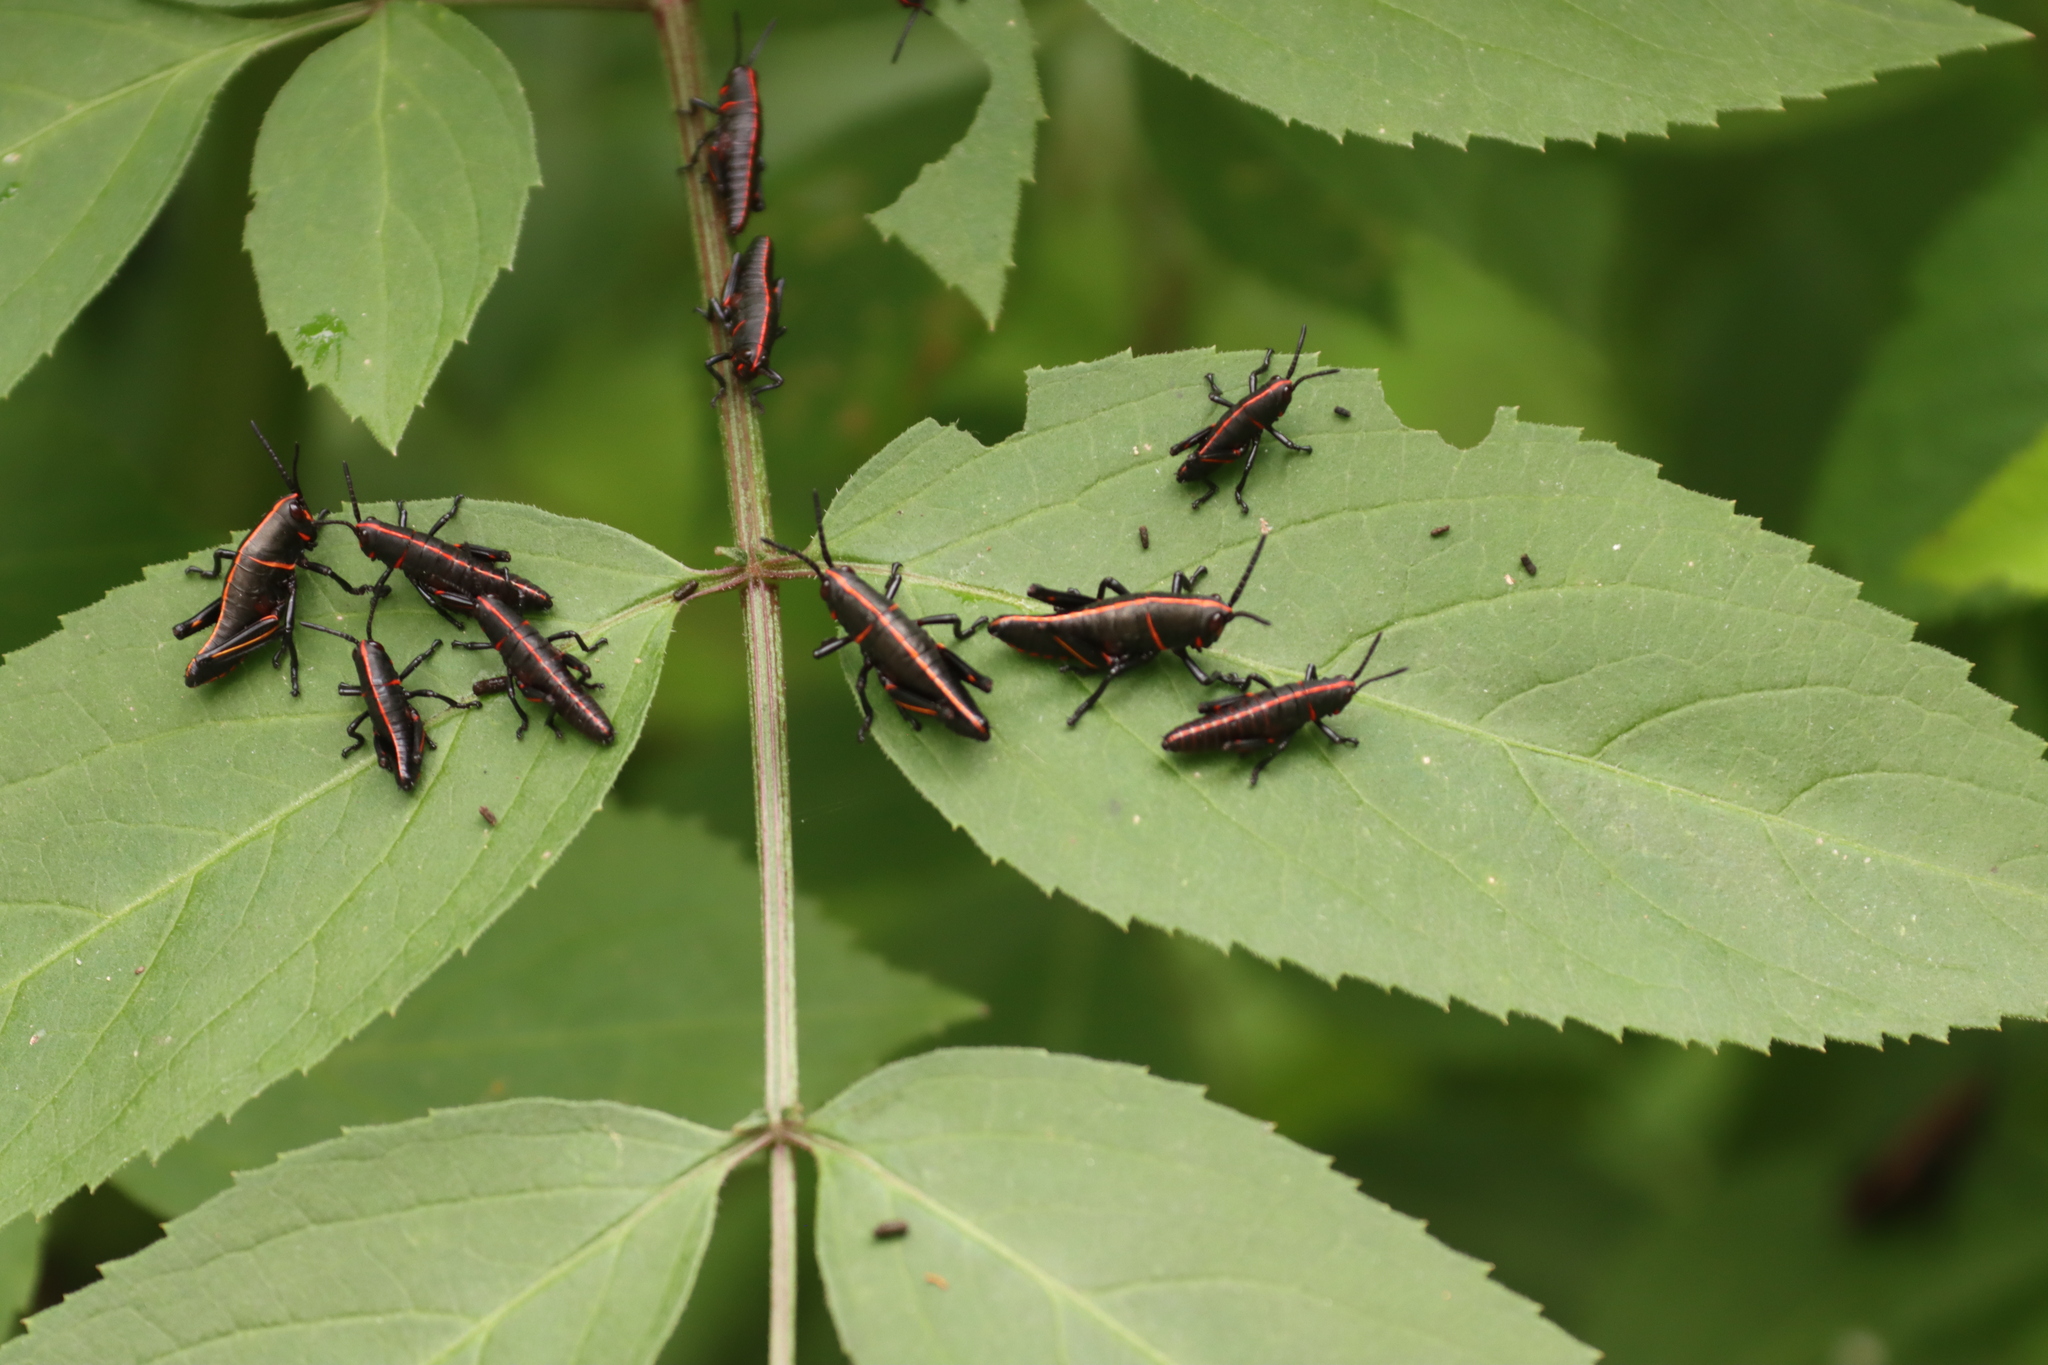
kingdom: Animalia
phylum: Arthropoda
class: Insecta
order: Orthoptera
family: Romaleidae
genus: Romalea
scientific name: Romalea microptera
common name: Eastern lubber grasshopper
